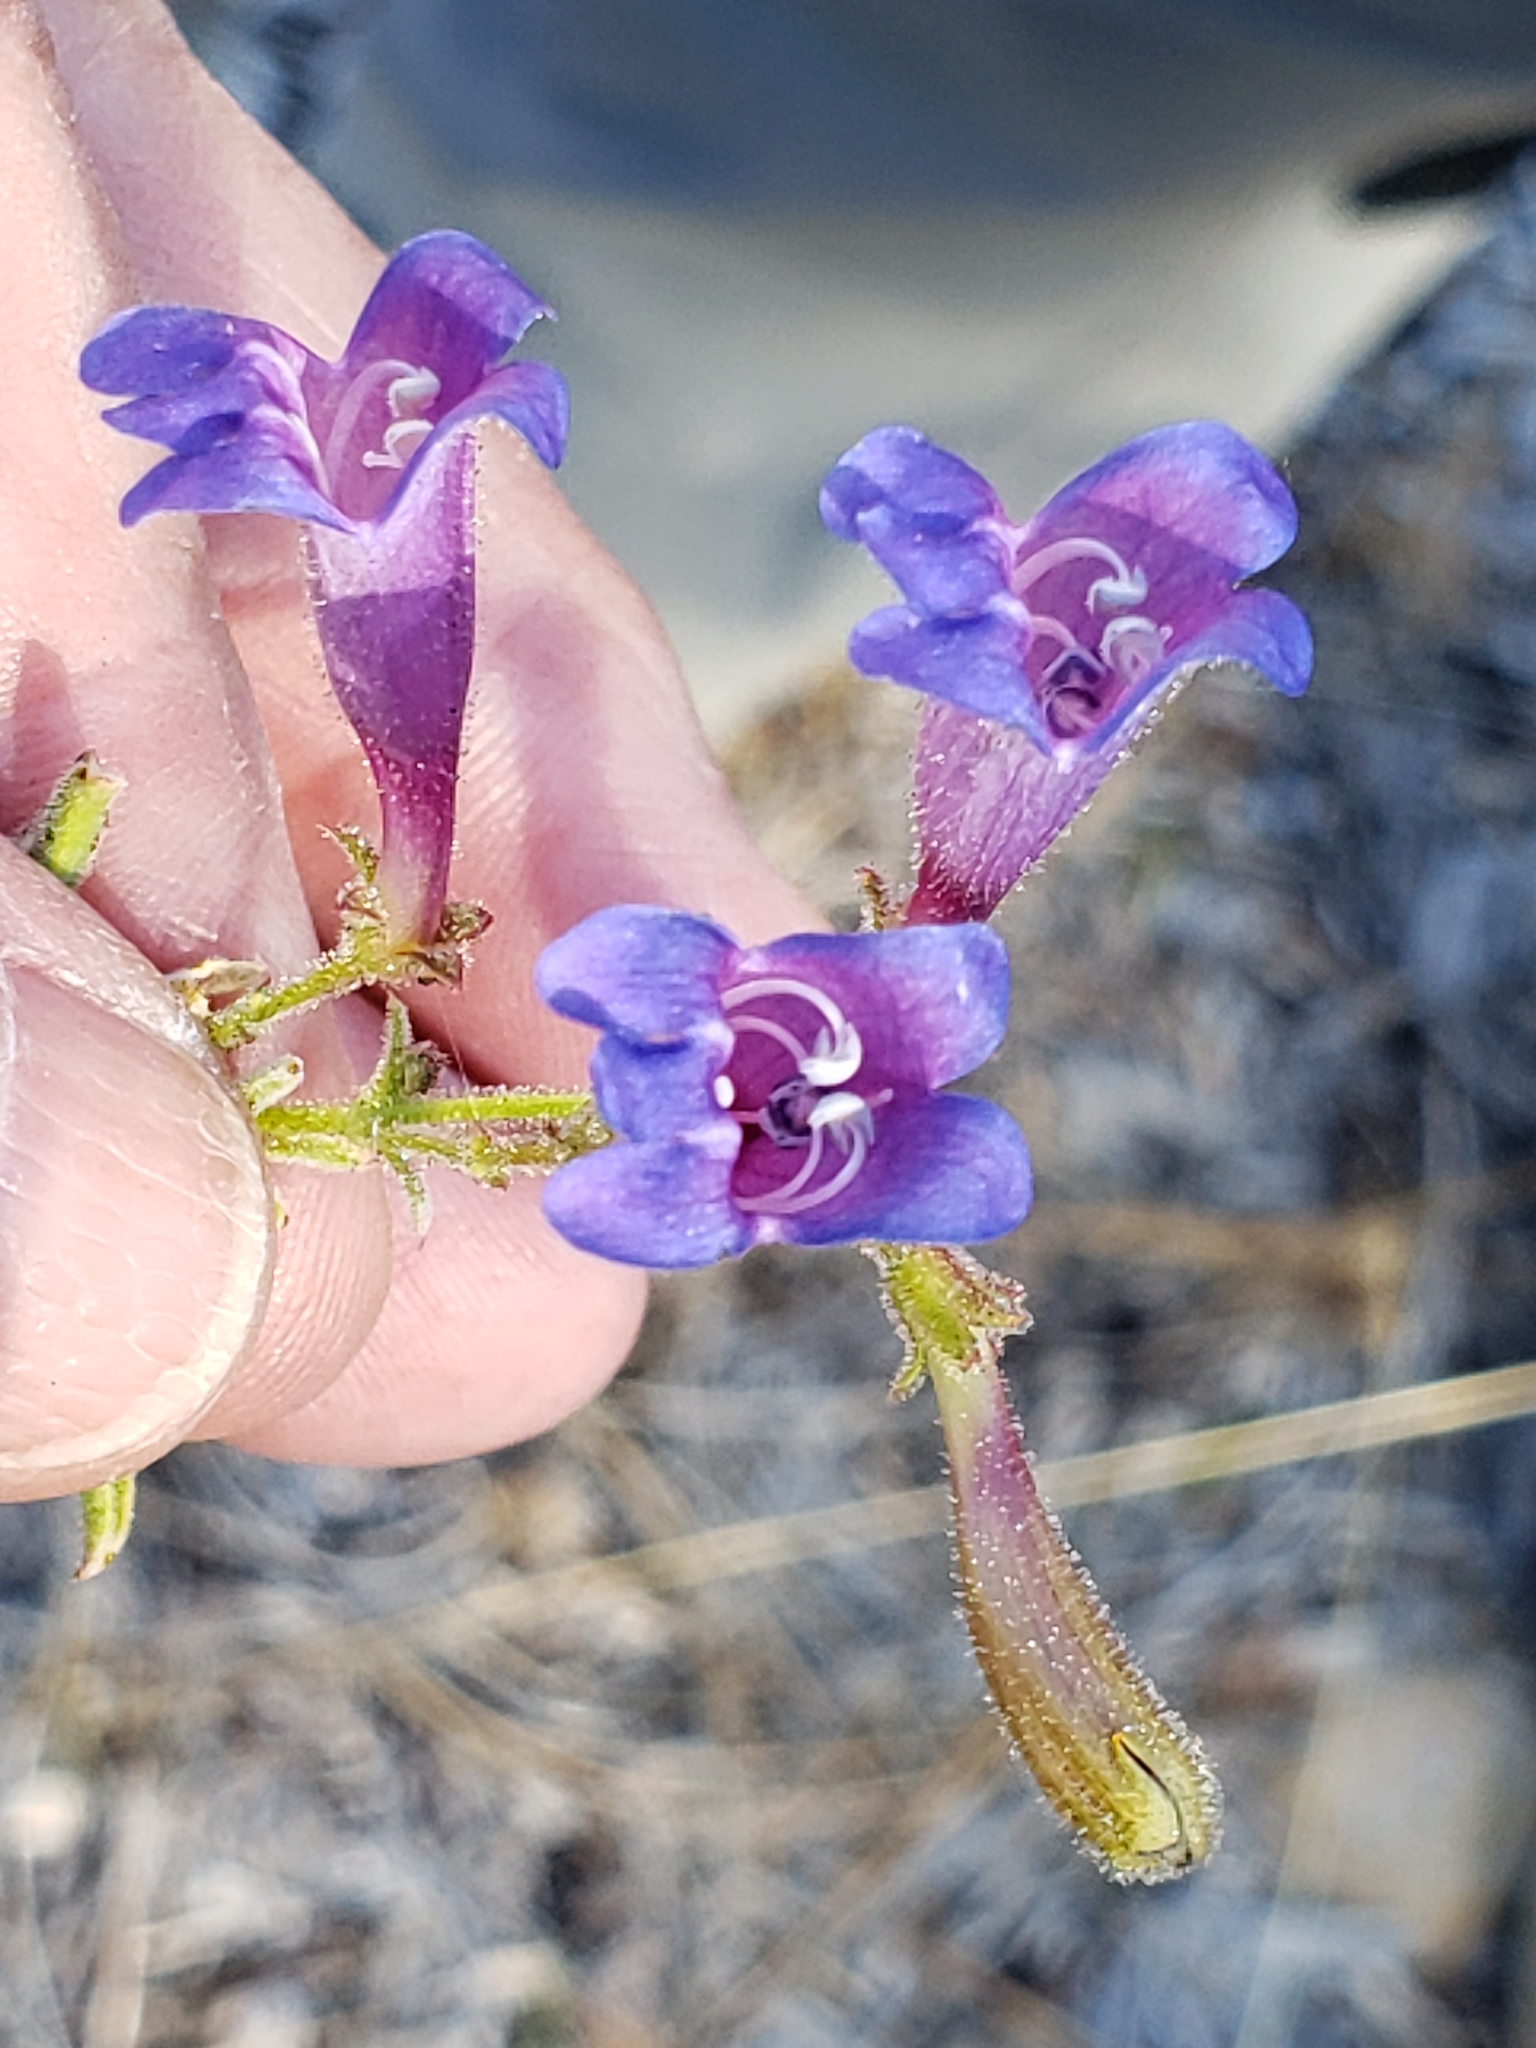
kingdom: Plantae
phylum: Tracheophyta
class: Magnoliopsida
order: Lamiales
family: Plantaginaceae
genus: Penstemon
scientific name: Penstemon laetus
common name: Gay penstemon
